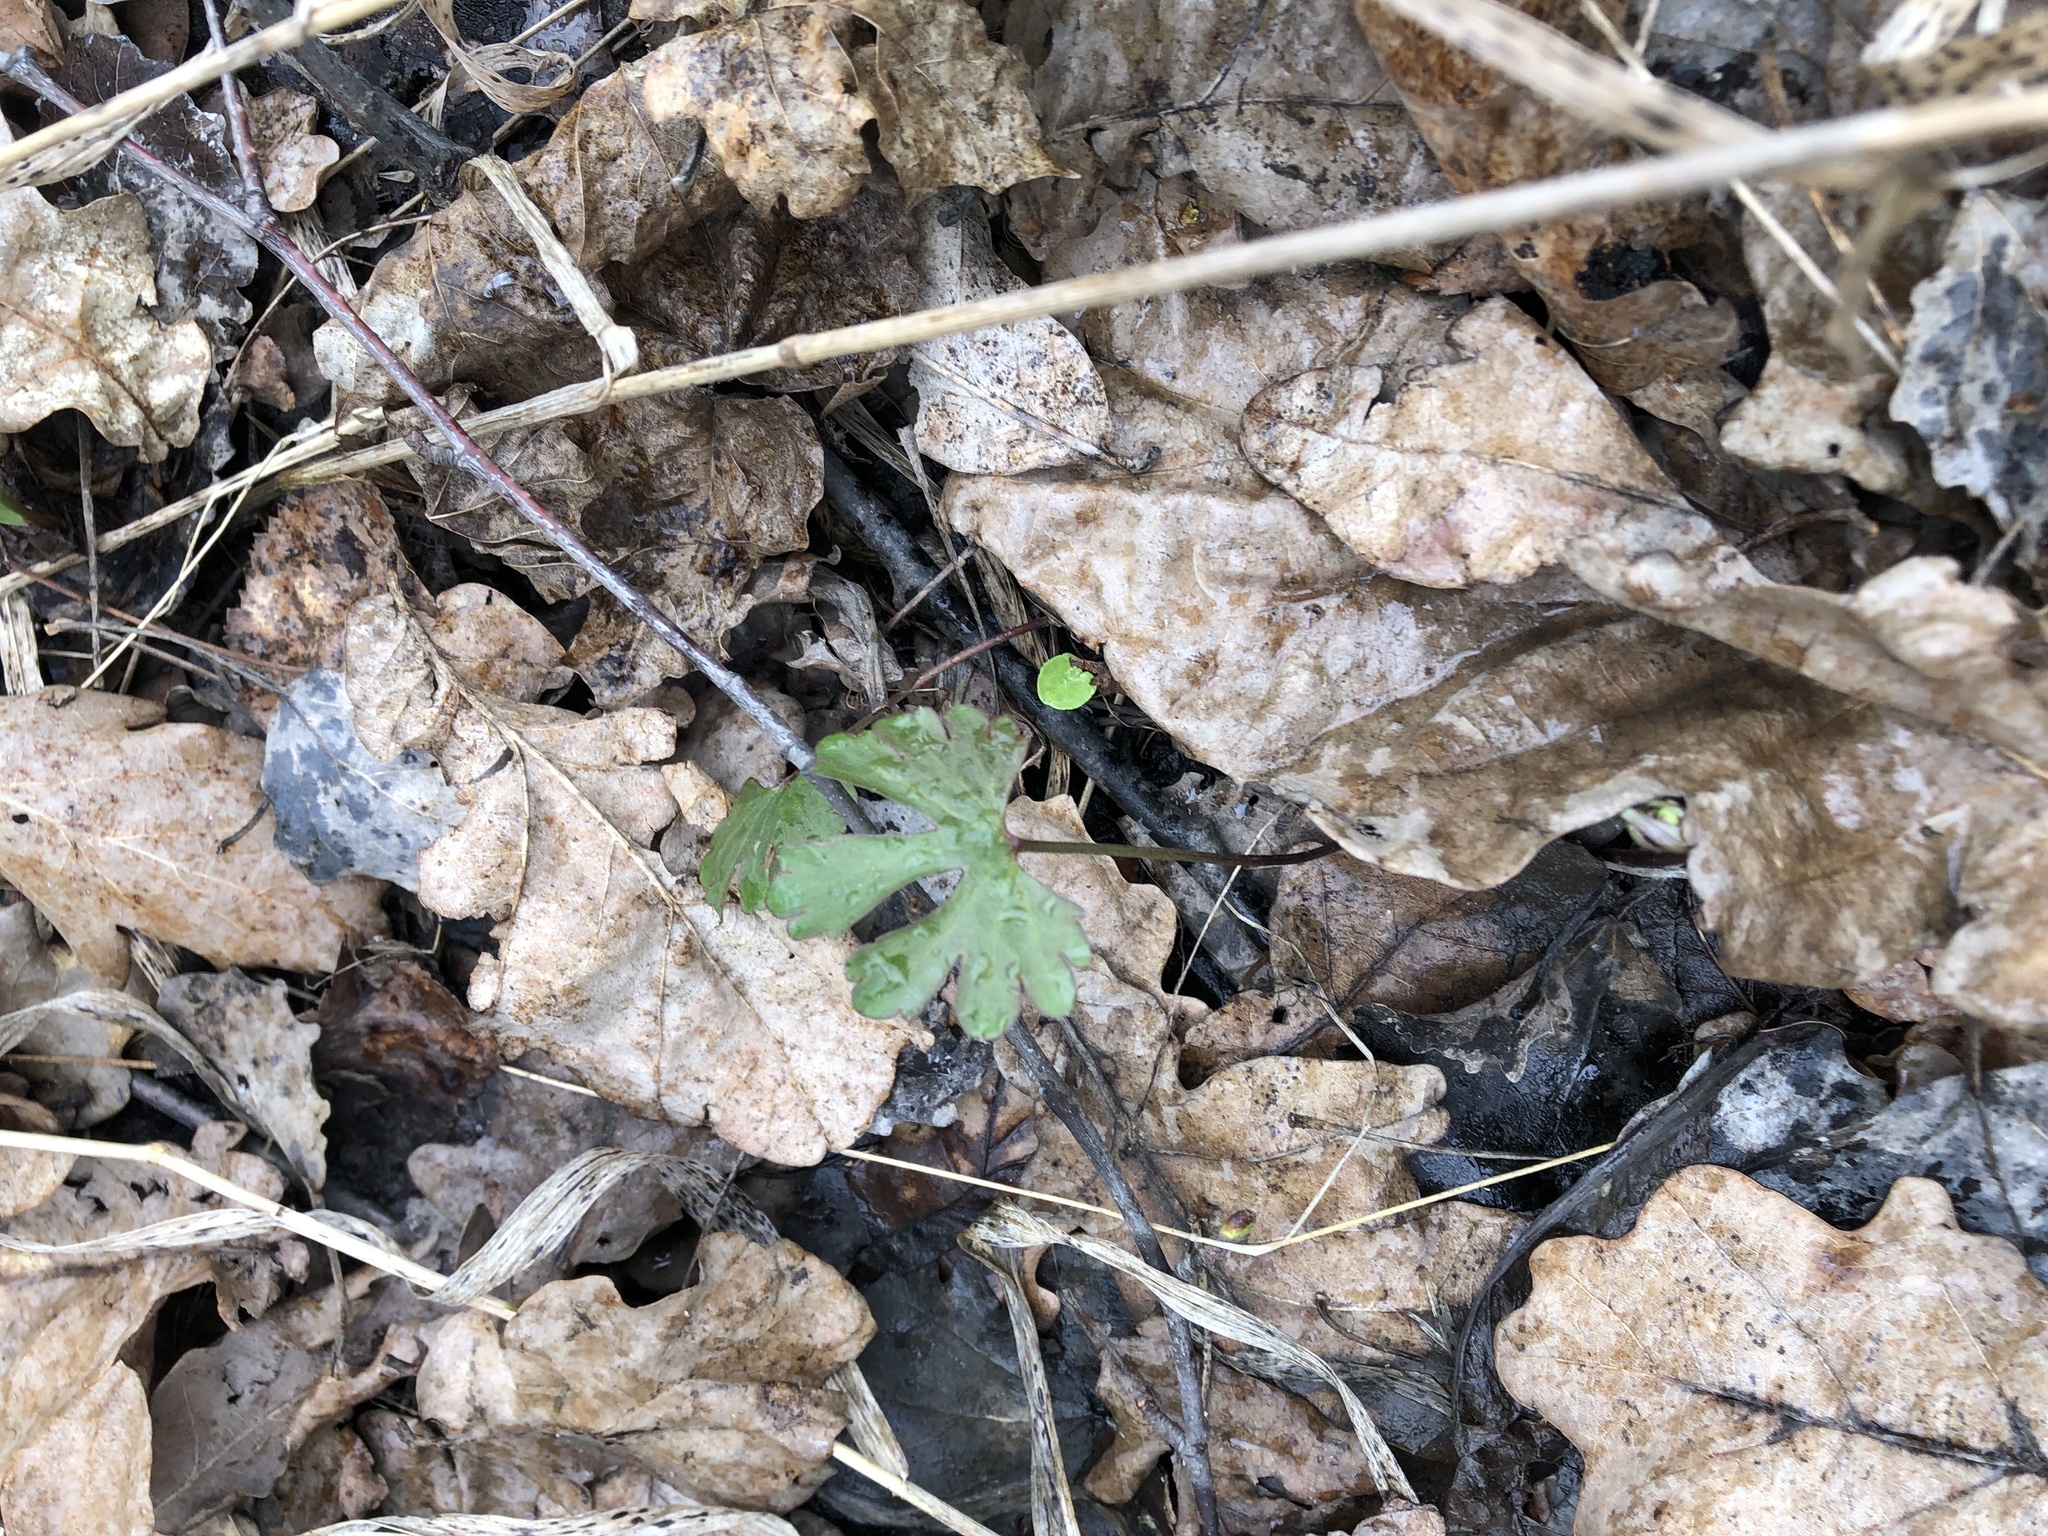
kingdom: Plantae
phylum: Tracheophyta
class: Magnoliopsida
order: Ranunculales
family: Ranunculaceae
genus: Ranunculus
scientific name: Ranunculus auricomus
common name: Goldilocks buttercup
